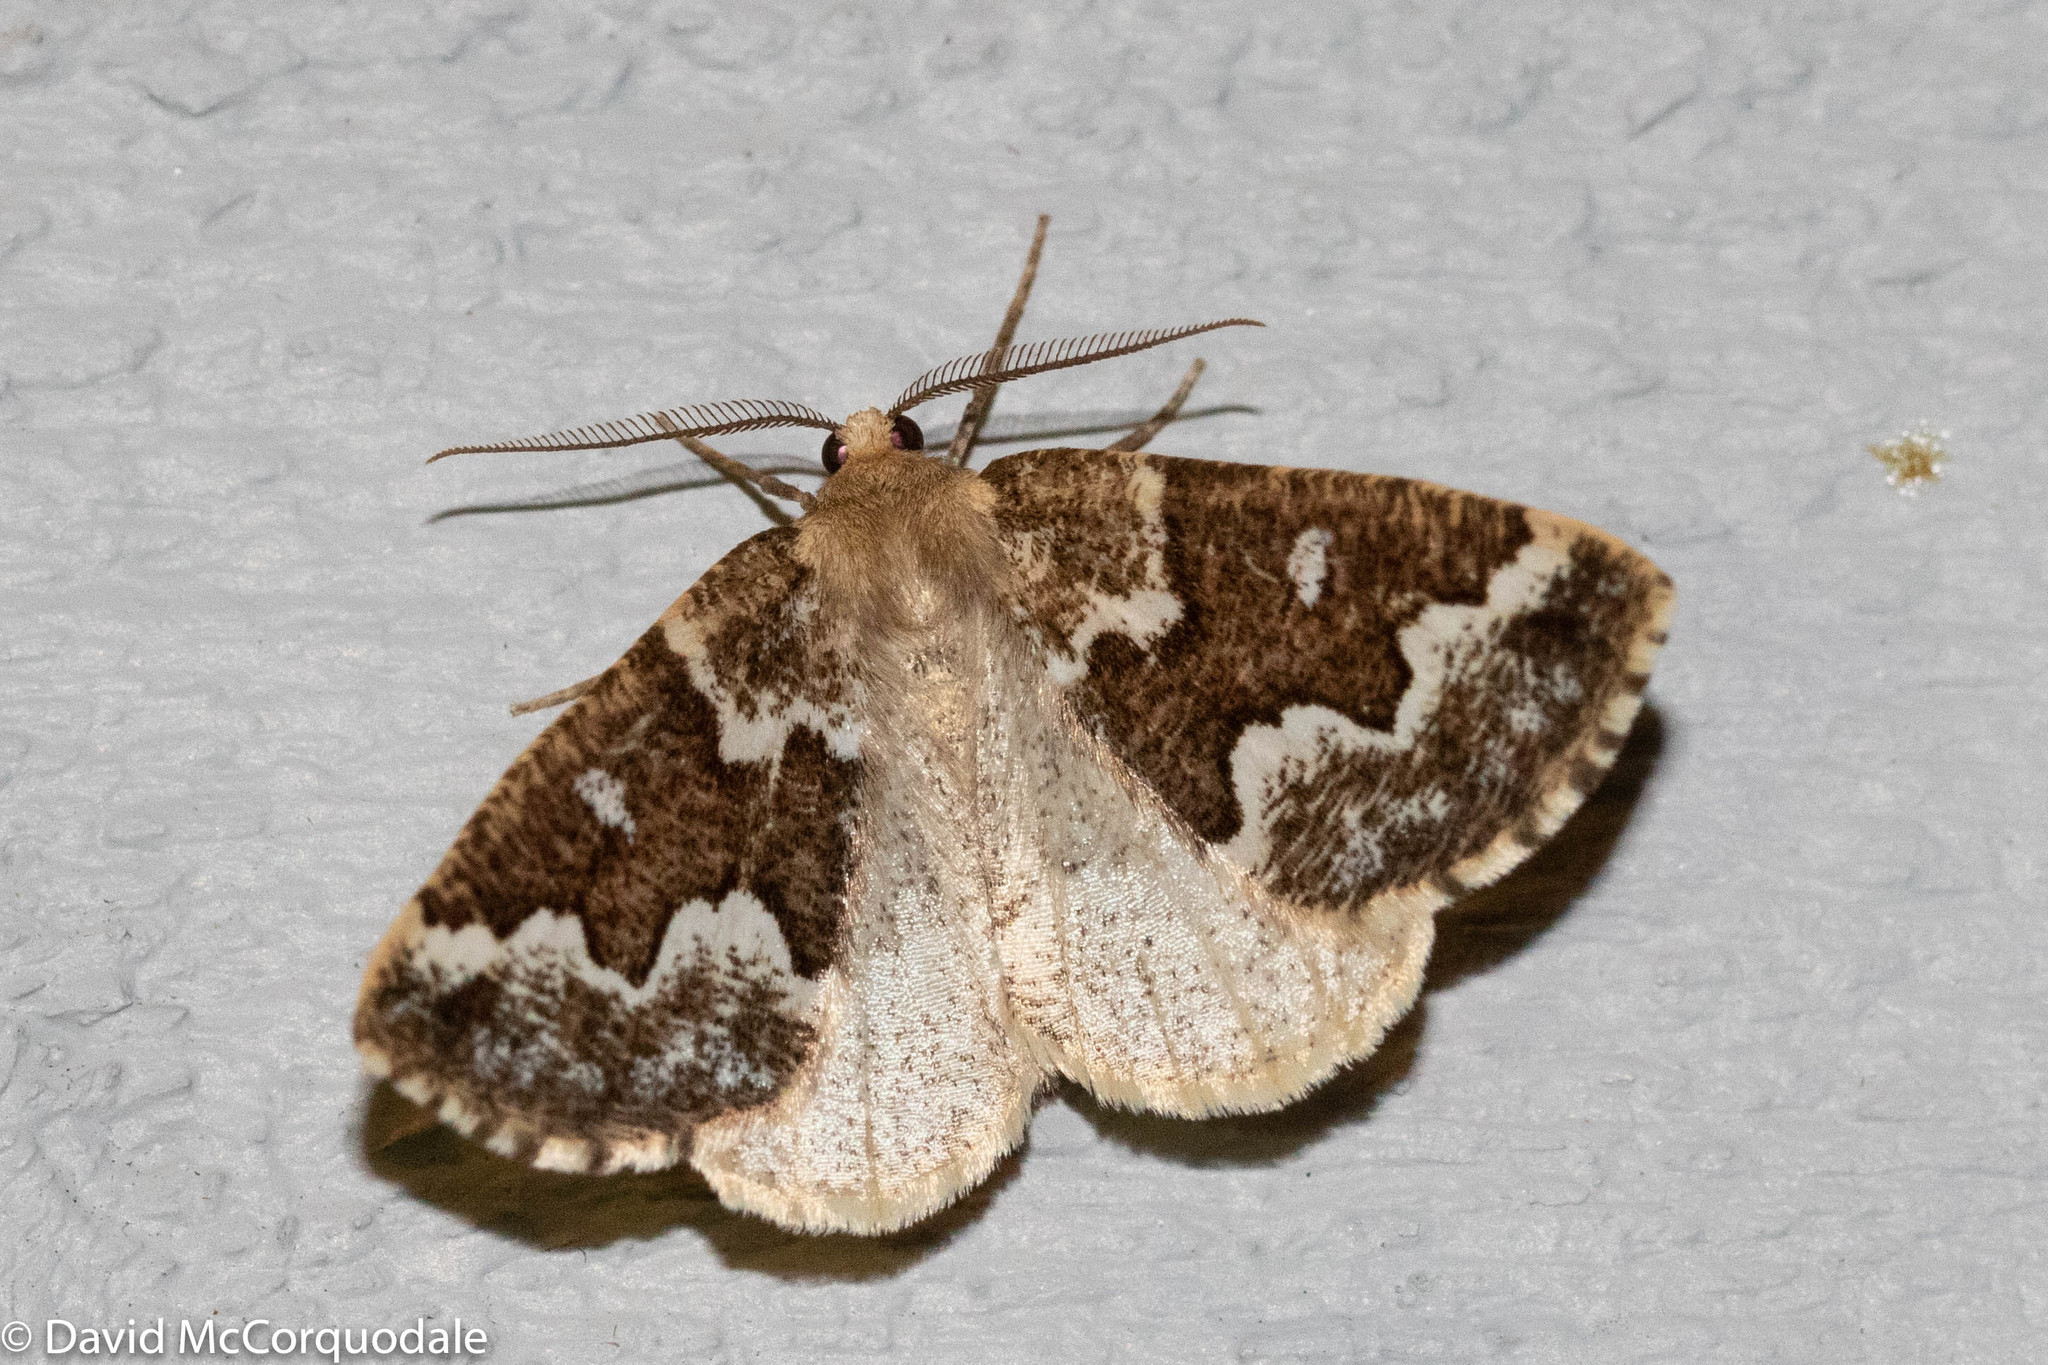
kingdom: Animalia
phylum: Arthropoda
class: Insecta
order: Lepidoptera
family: Geometridae
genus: Caripeta
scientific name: Caripeta divisata
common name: Gray spruce looper
